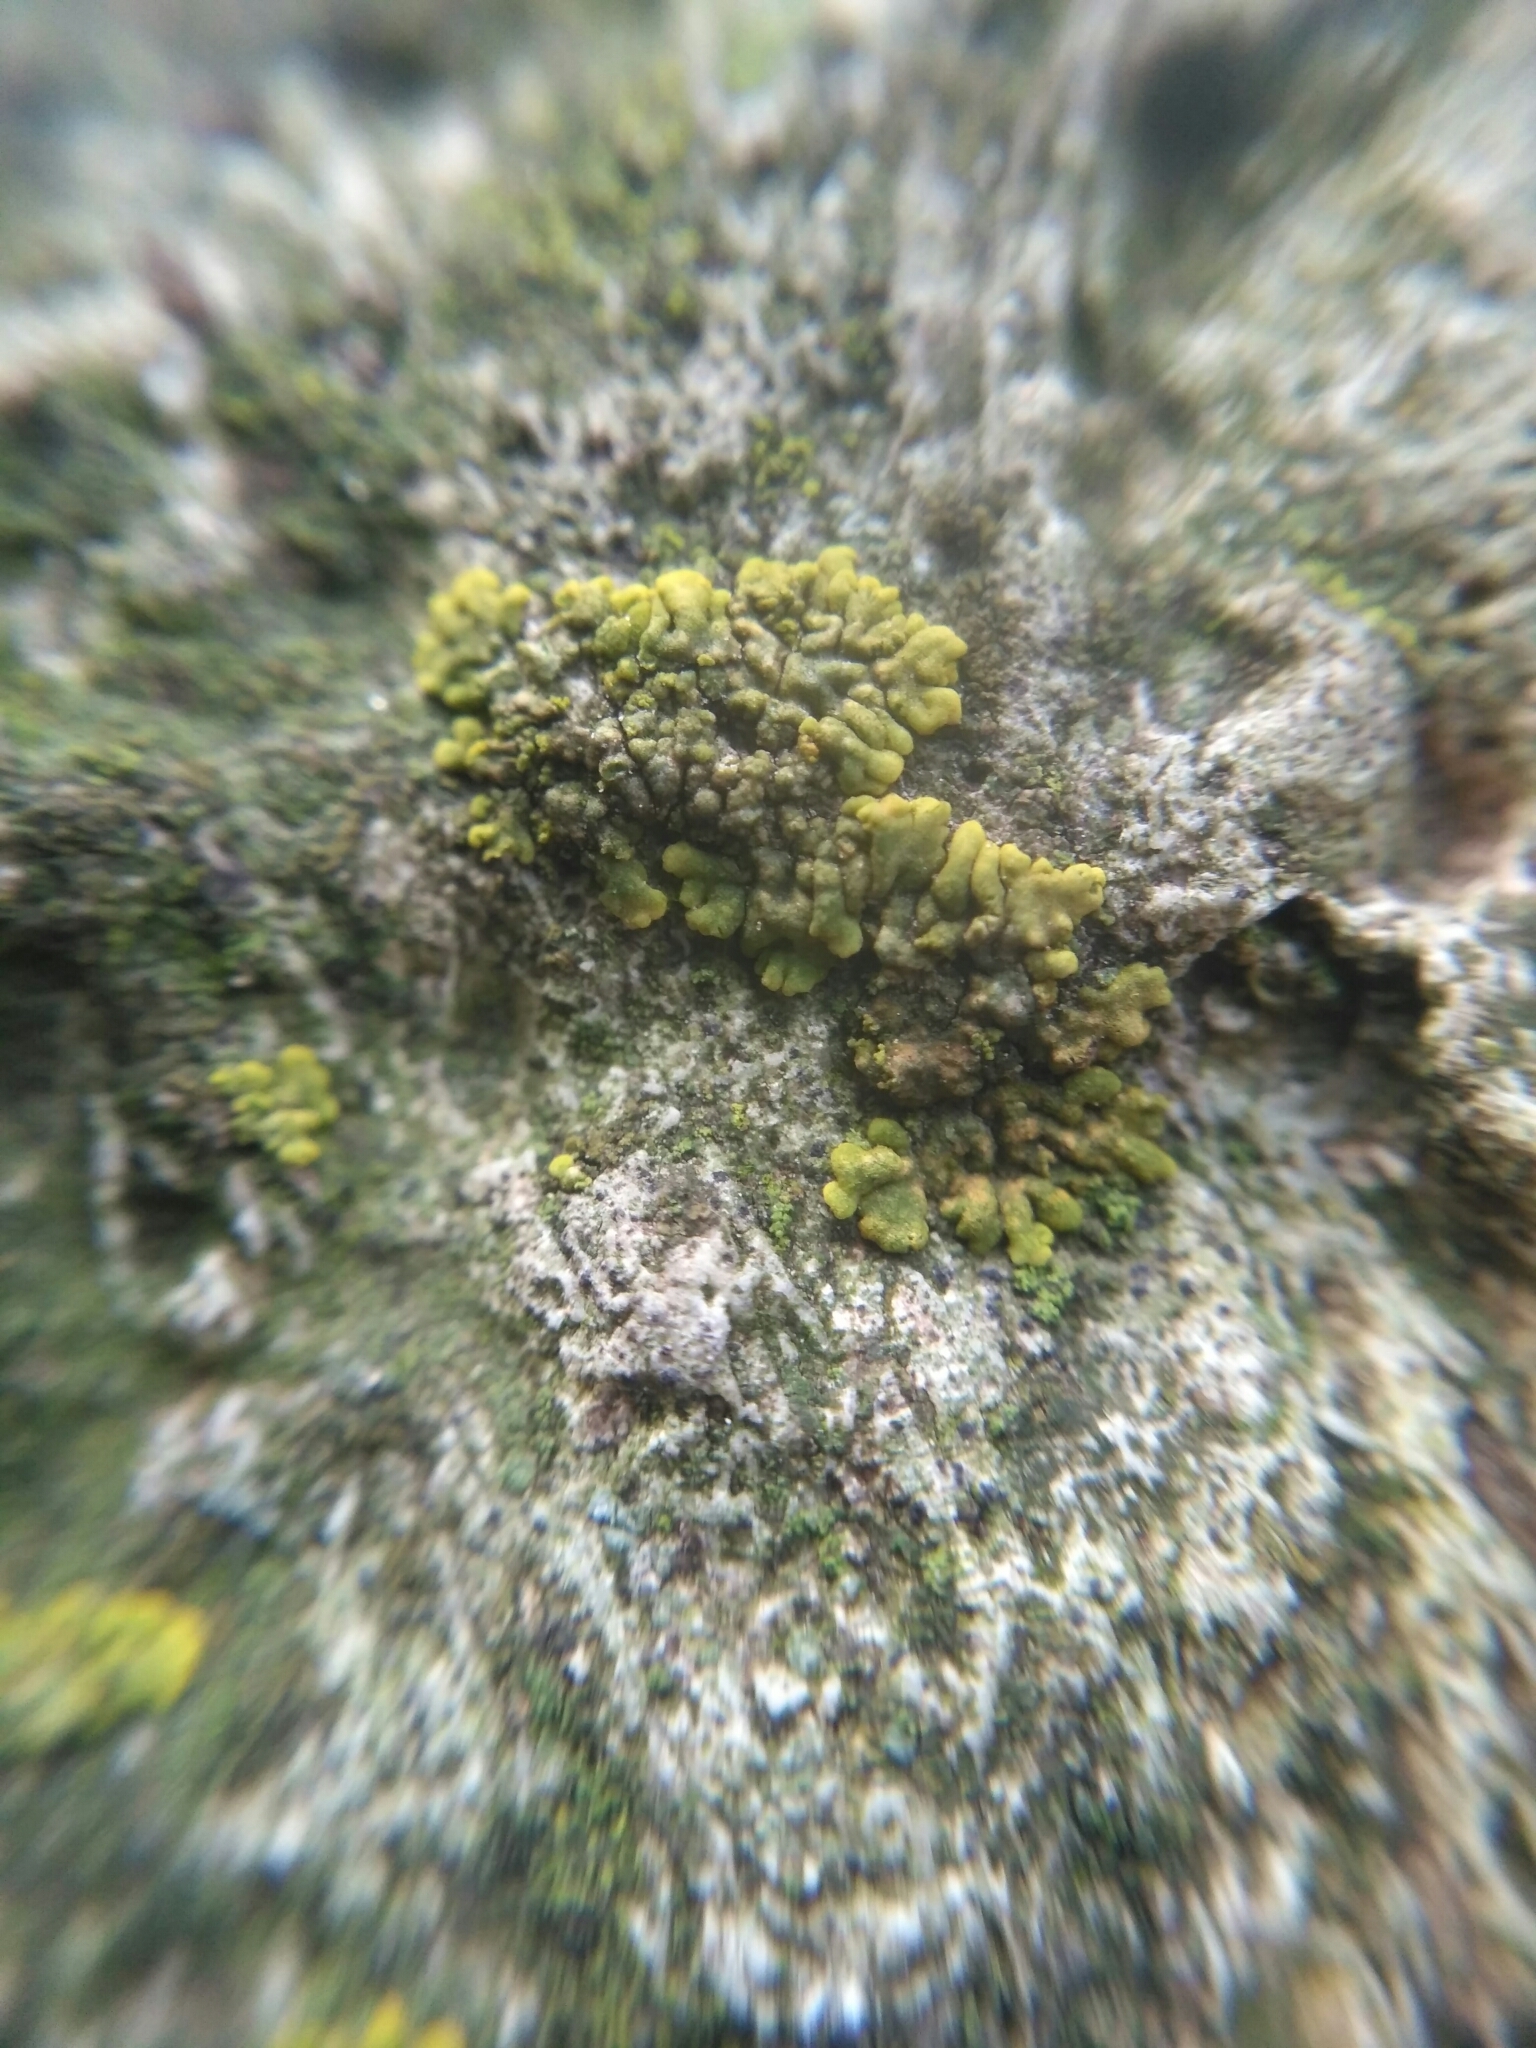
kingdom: Fungi
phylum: Ascomycota
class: Lecanoromycetes
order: Teloschistales
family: Teloschistaceae
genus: Calogaya
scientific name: Calogaya decipiens
